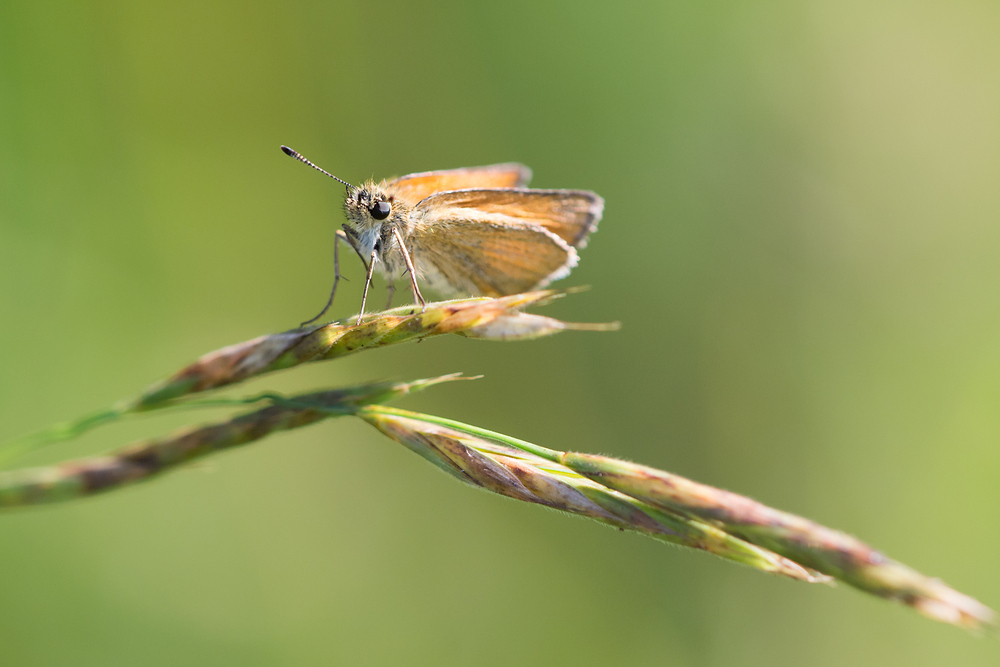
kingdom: Animalia
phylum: Arthropoda
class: Insecta
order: Lepidoptera
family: Hesperiidae
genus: Thymelicus
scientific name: Thymelicus lineola
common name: Essex skipper
